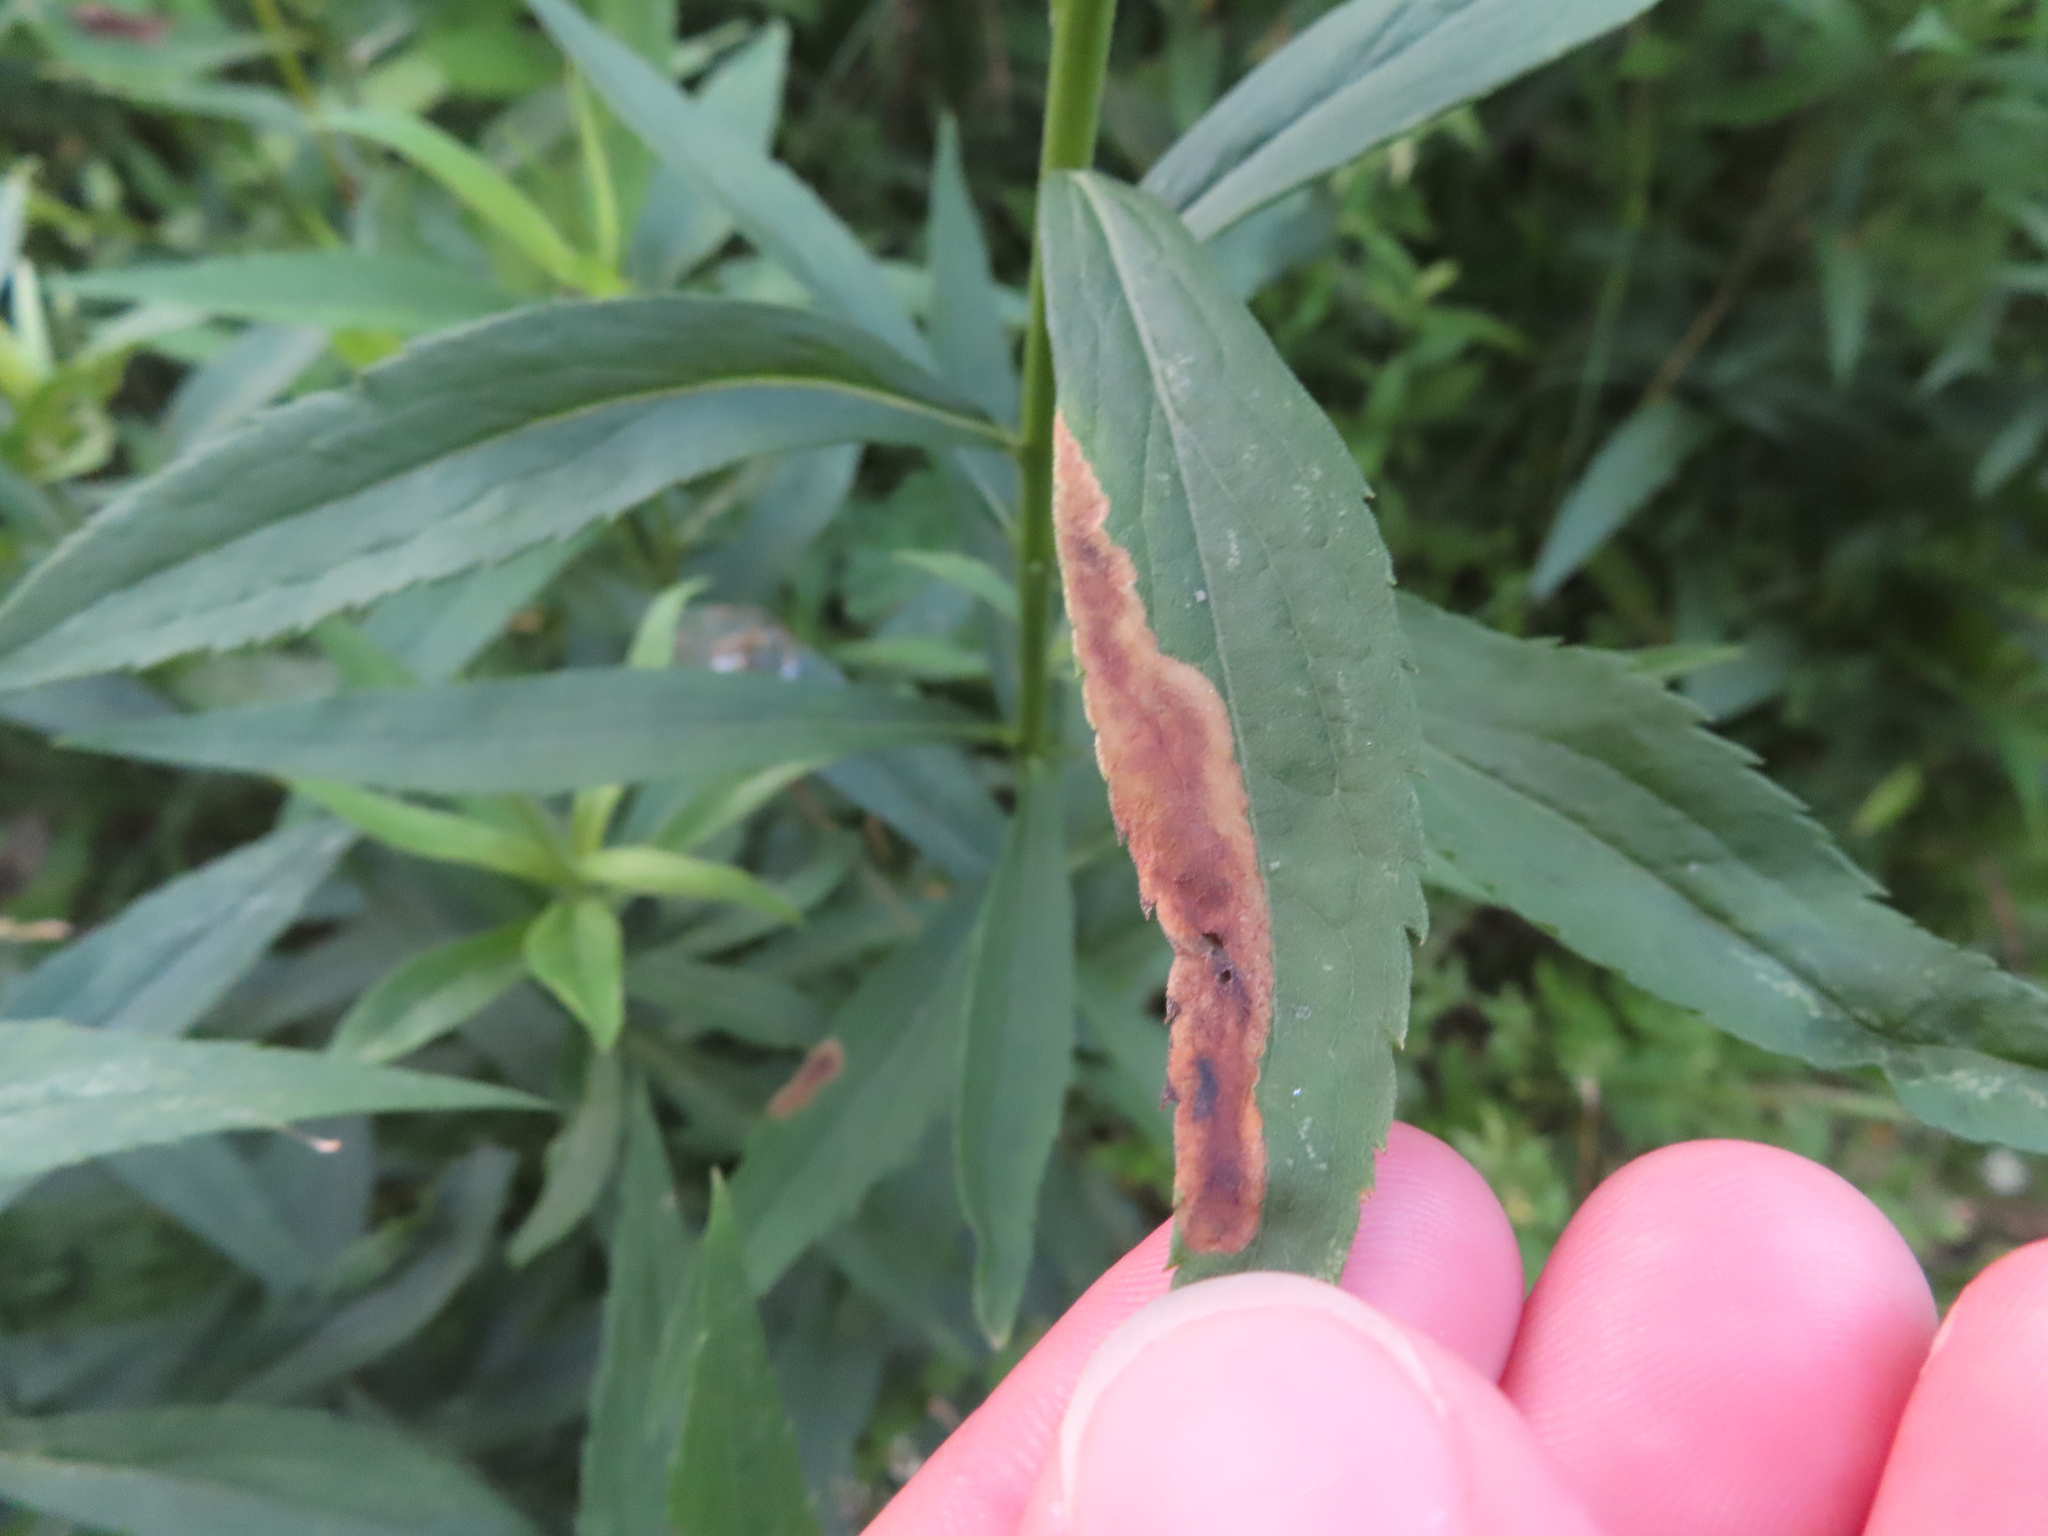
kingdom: Animalia
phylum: Arthropoda
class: Insecta
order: Diptera
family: Agromyzidae
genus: Nemorimyza
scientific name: Nemorimyza posticata
